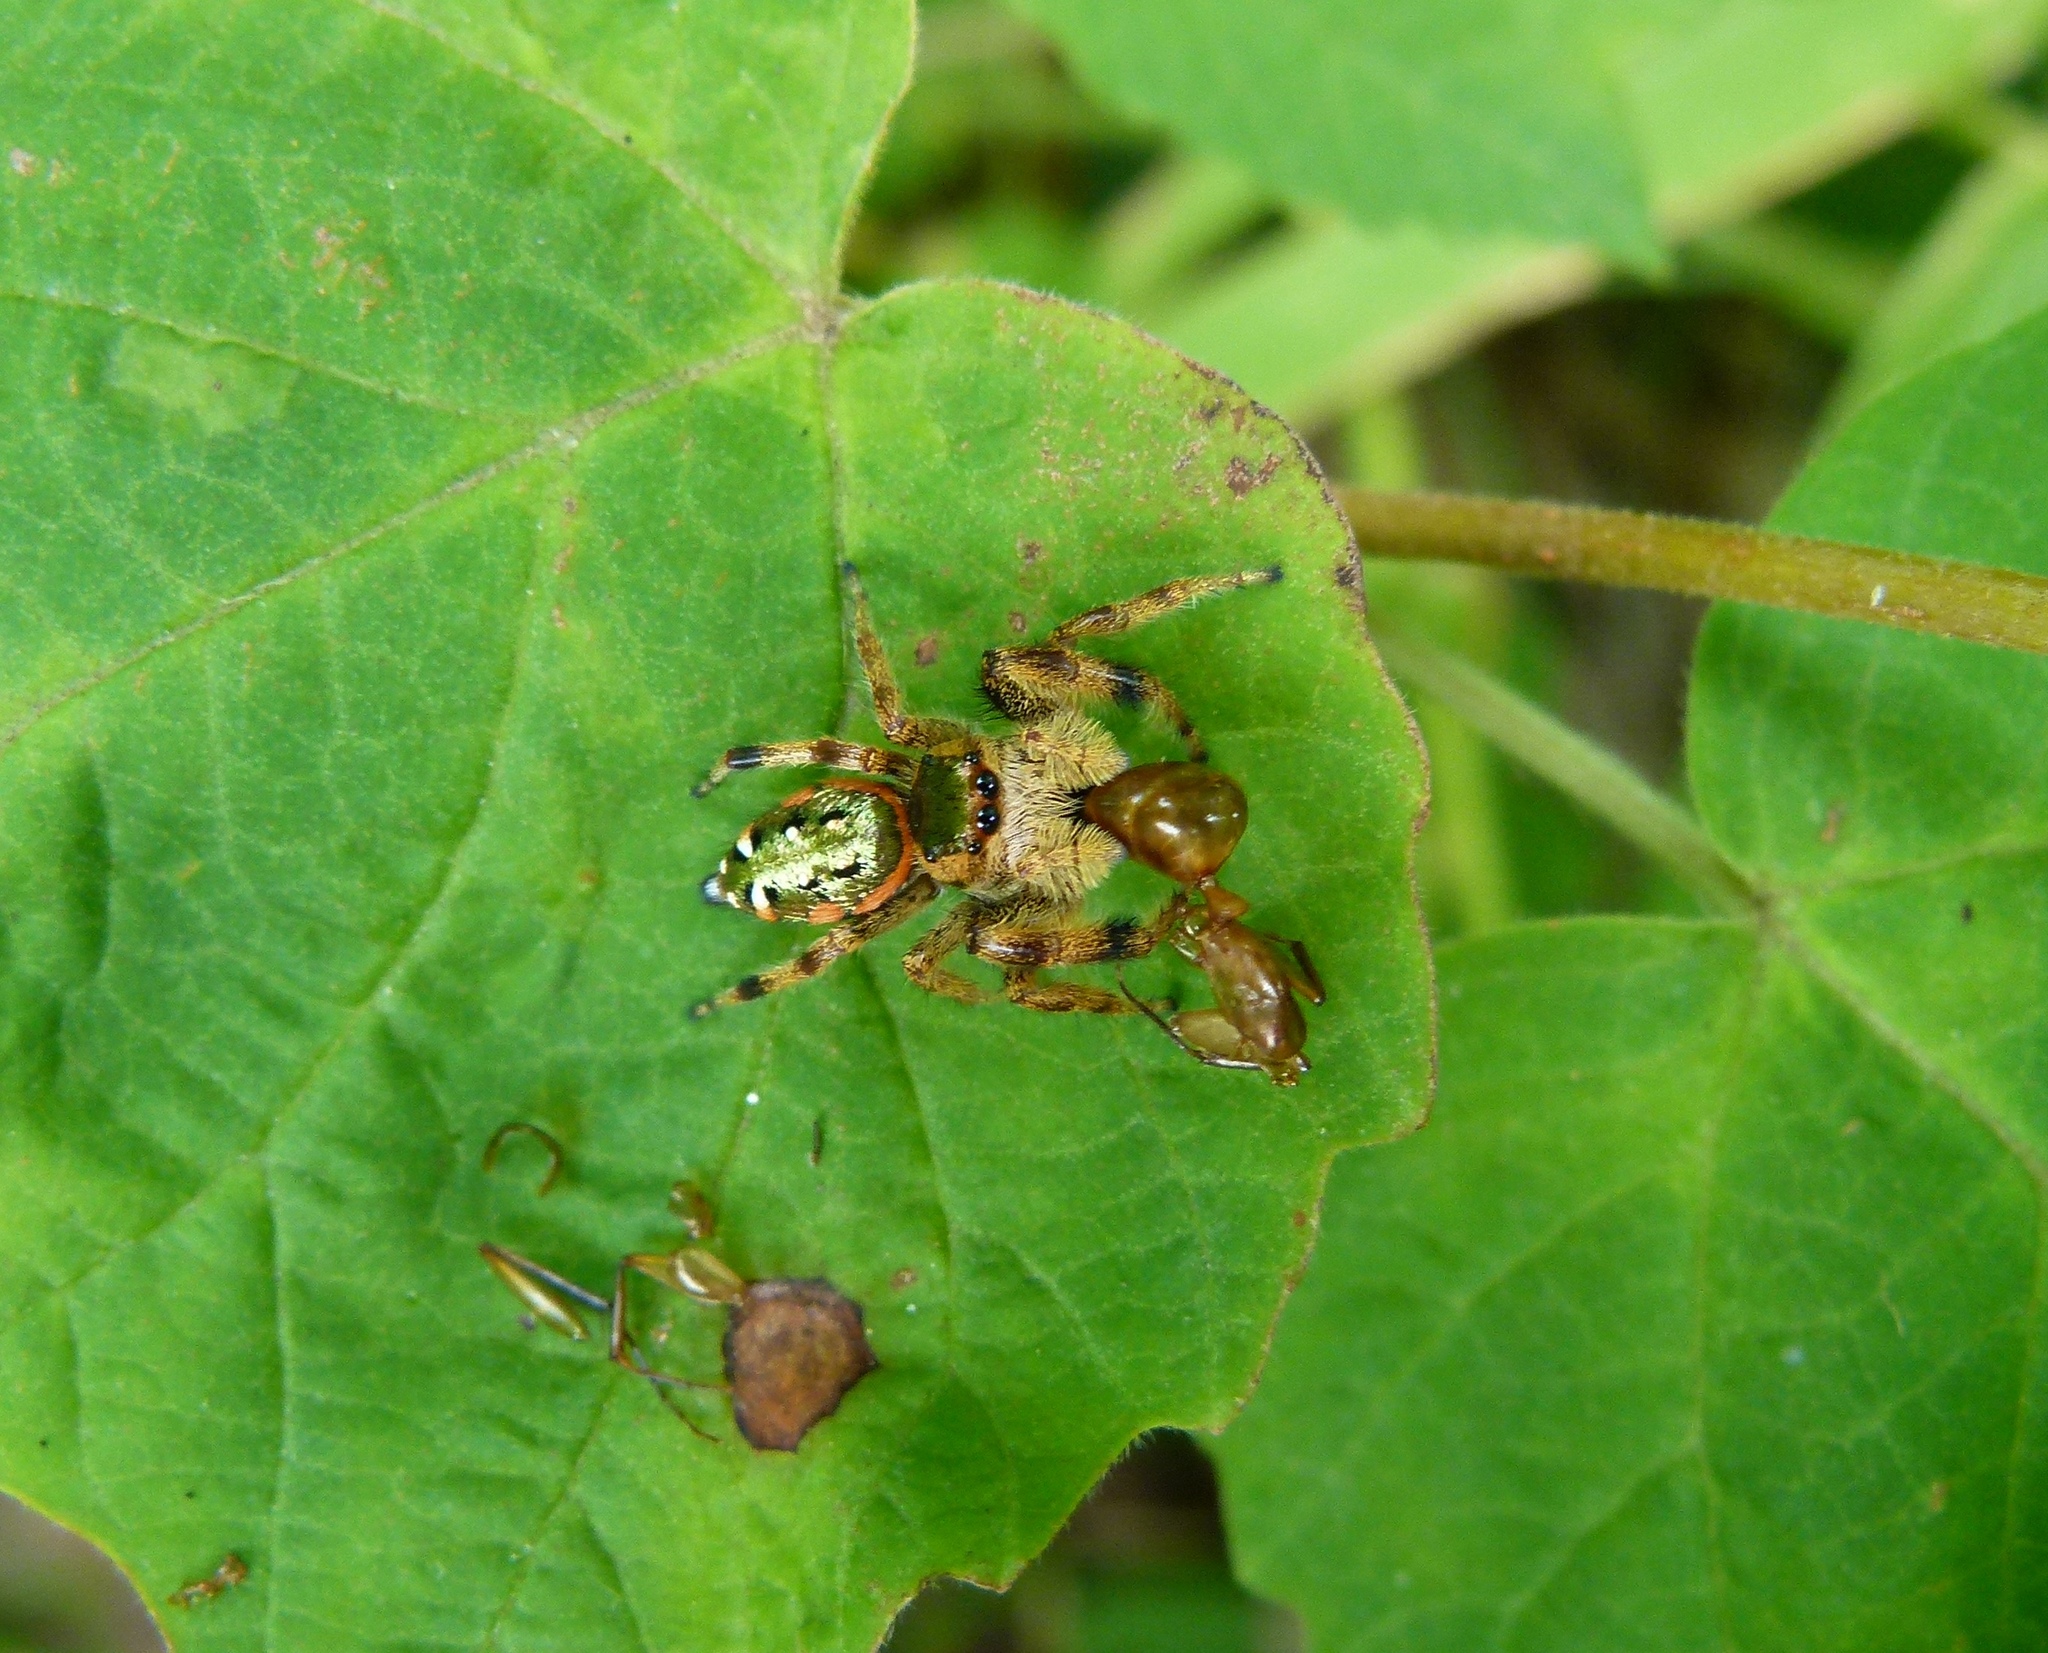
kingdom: Animalia
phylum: Arthropoda
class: Arachnida
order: Araneae
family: Salticidae
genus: Paraphidippus
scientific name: Paraphidippus aurantius
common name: Jumping spiders
